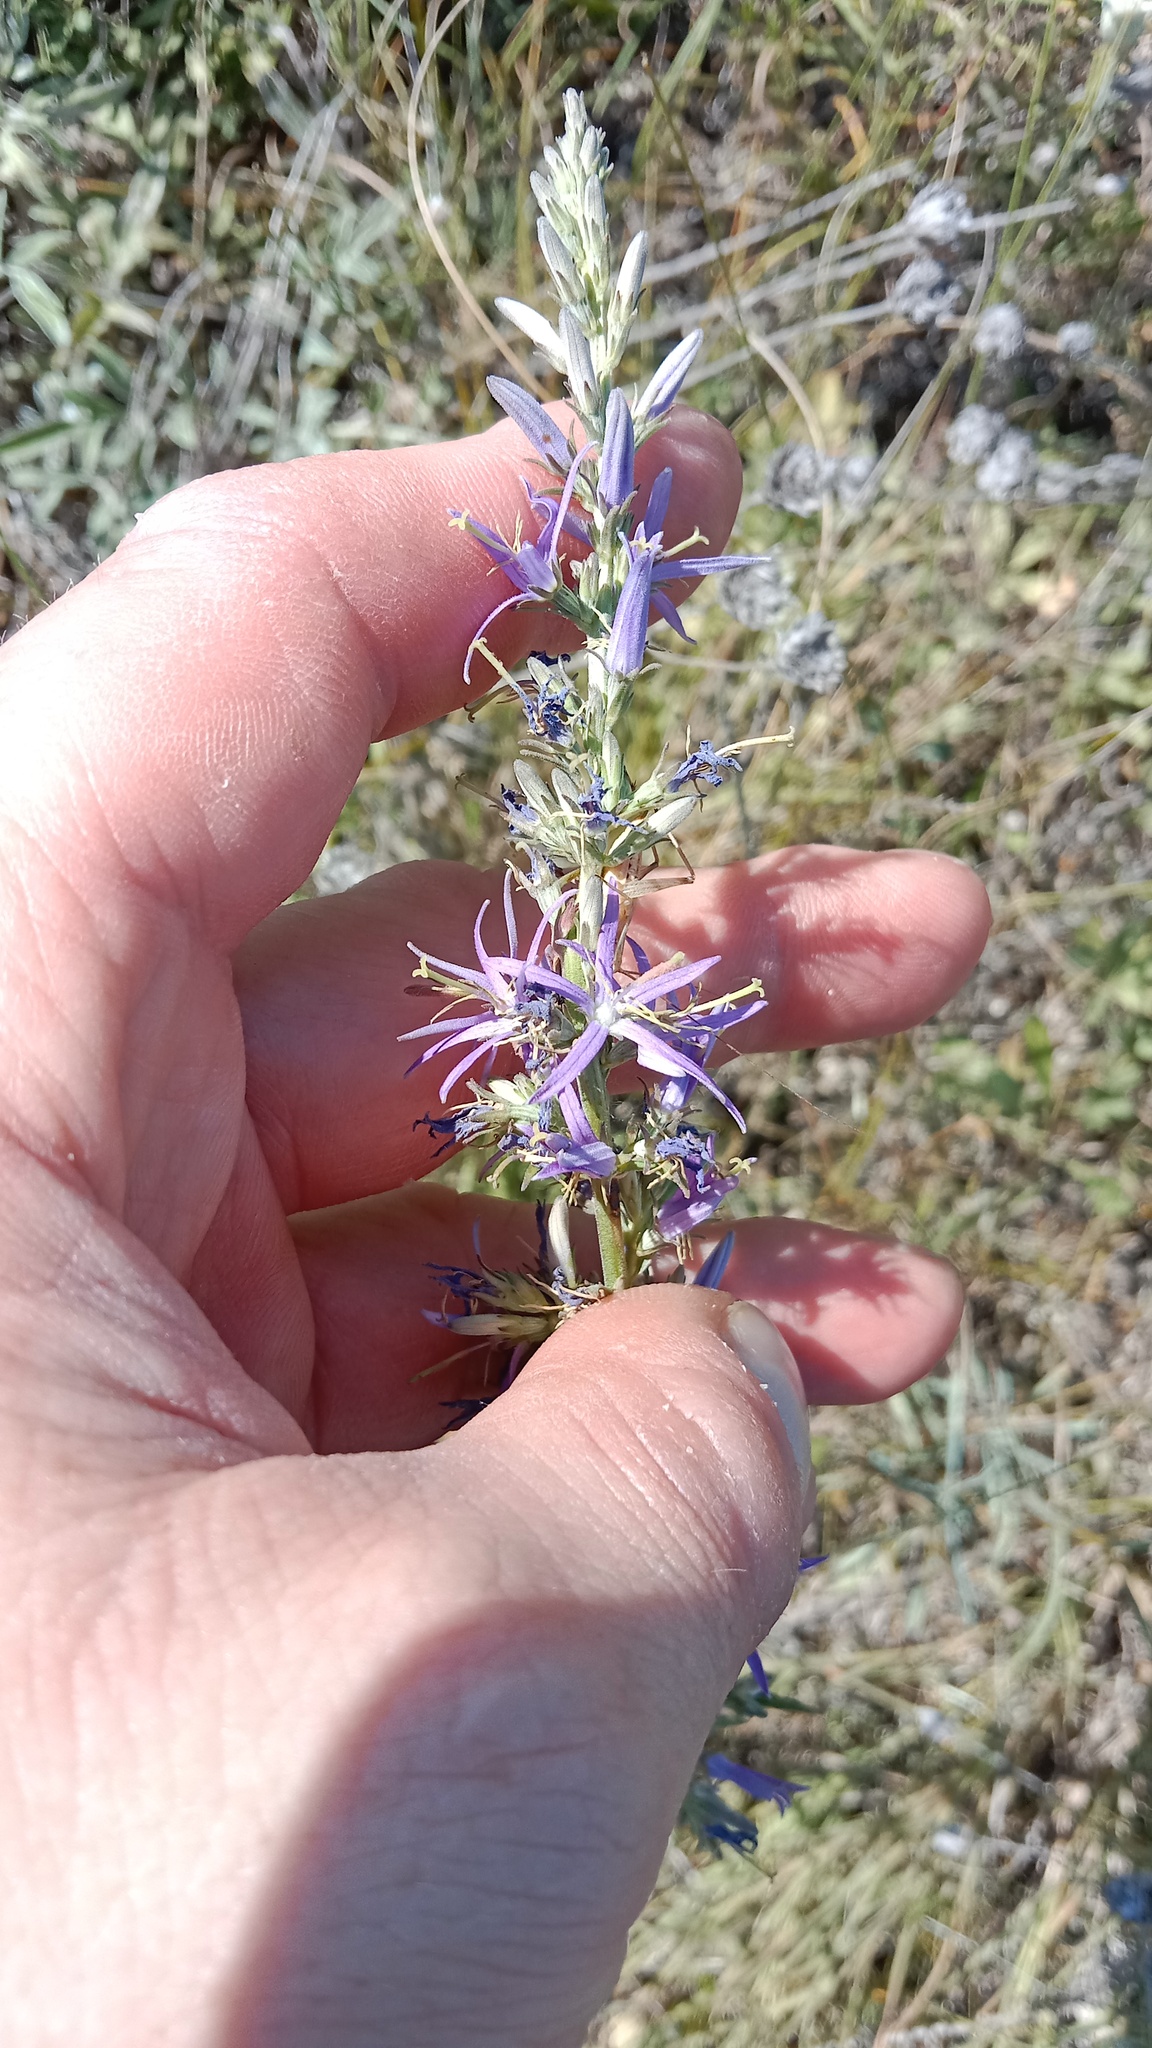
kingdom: Plantae
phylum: Tracheophyta
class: Magnoliopsida
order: Asterales
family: Campanulaceae
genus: Asyneuma
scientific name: Asyneuma canescens
